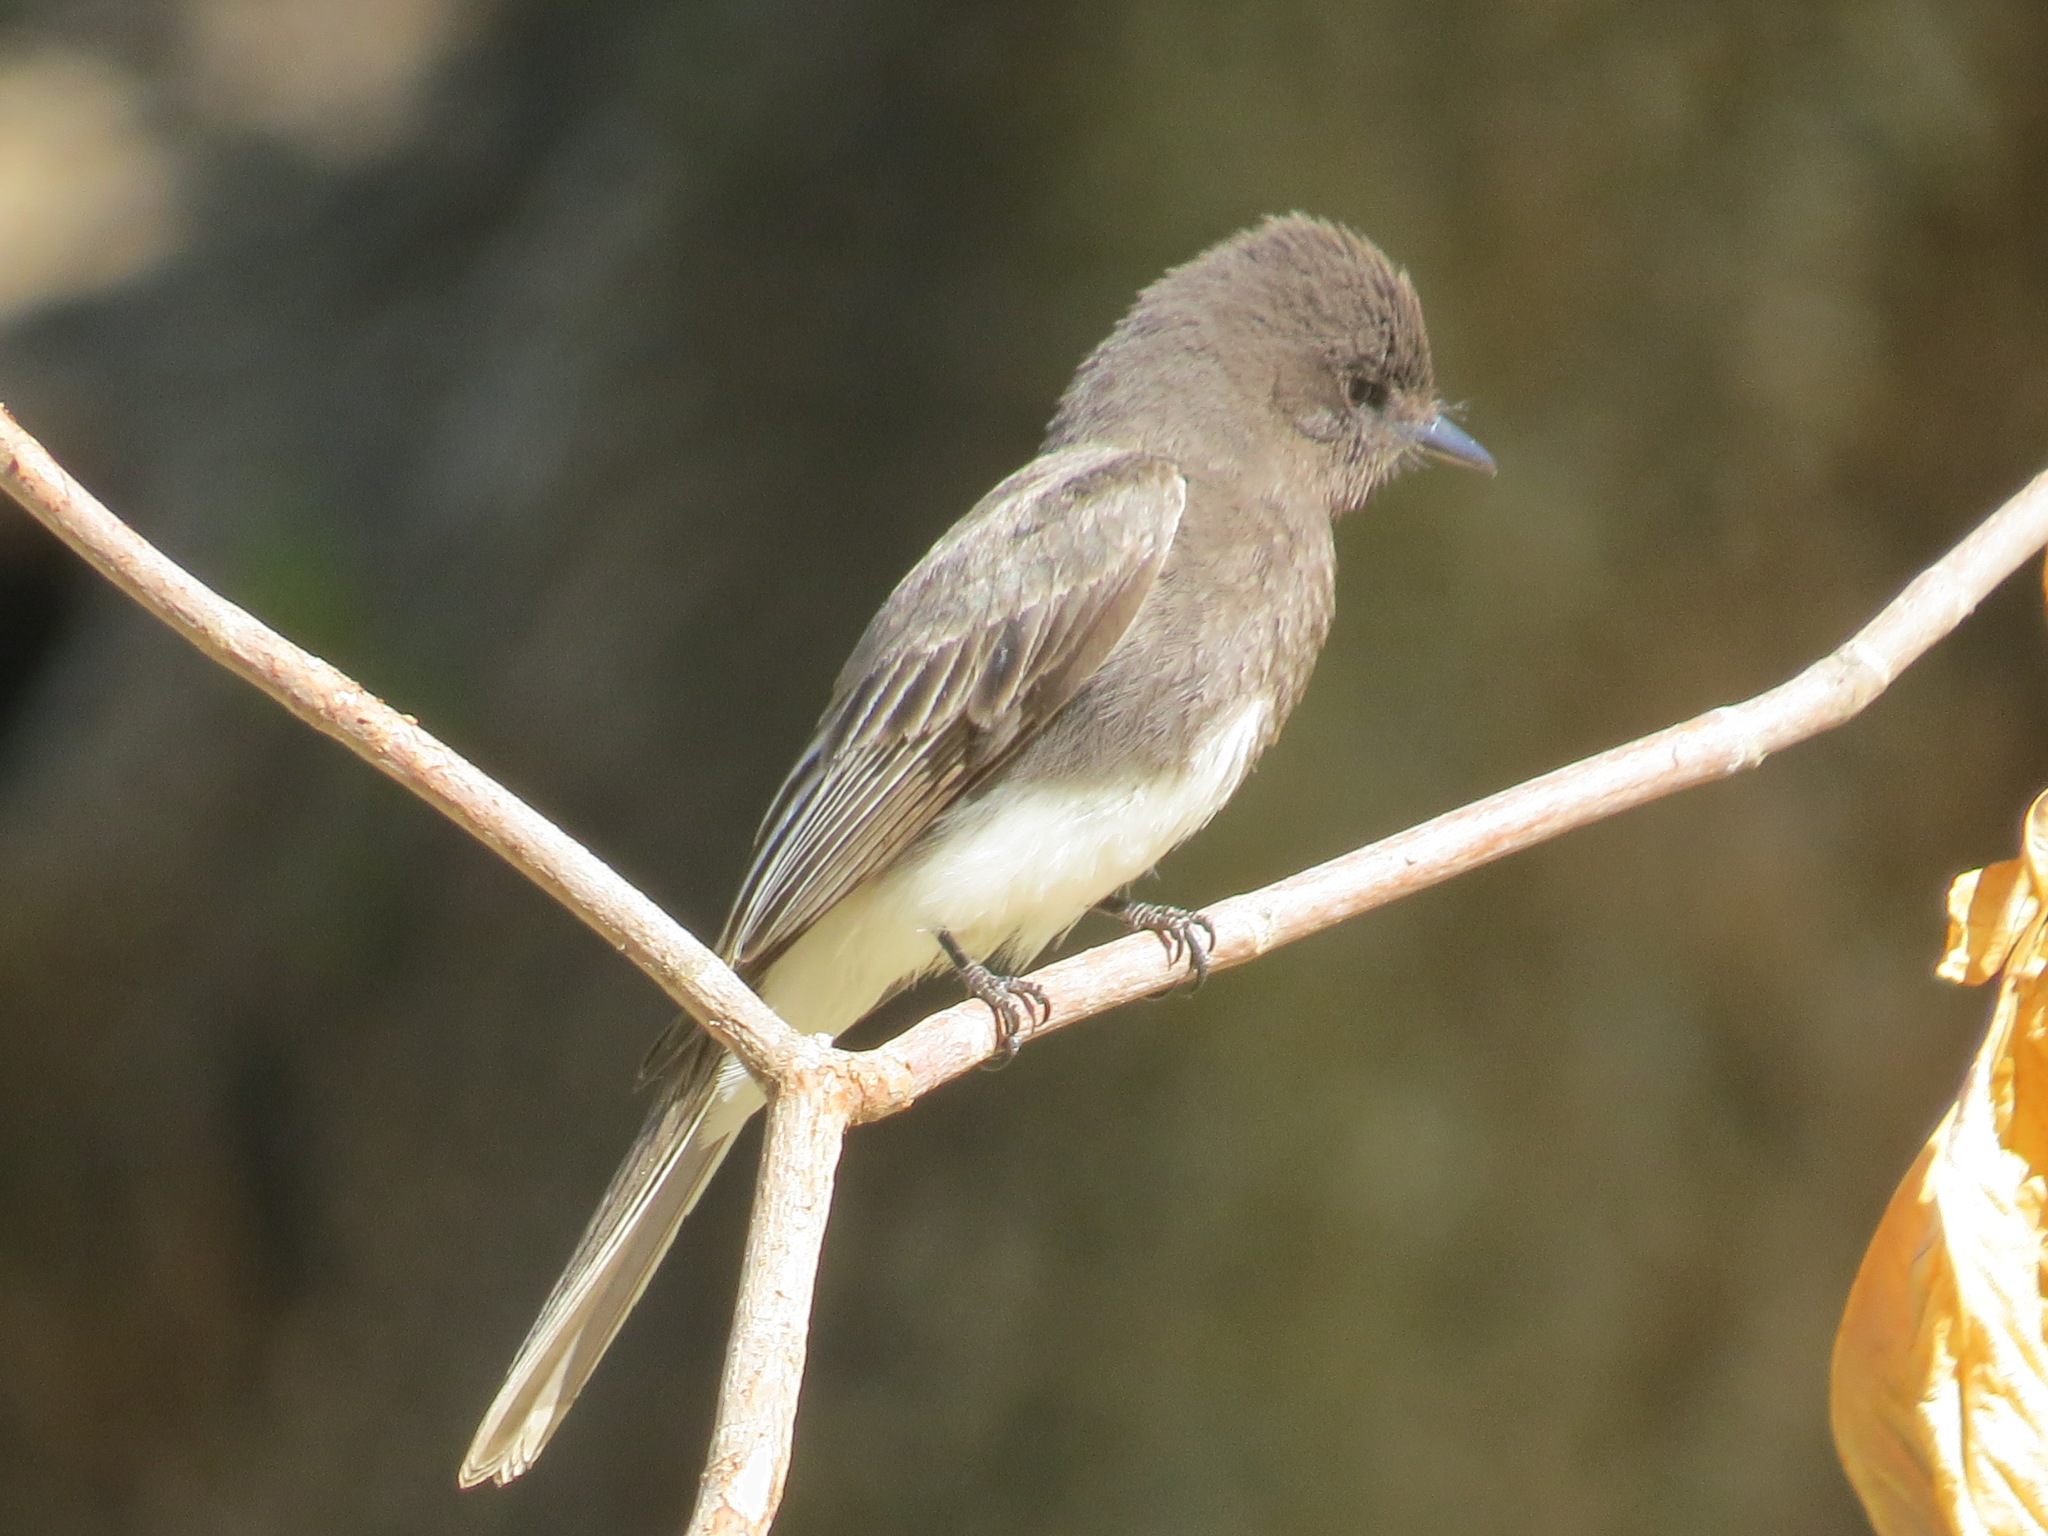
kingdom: Animalia
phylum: Chordata
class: Aves
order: Passeriformes
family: Tyrannidae
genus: Sayornis
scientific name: Sayornis nigricans
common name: Black phoebe
